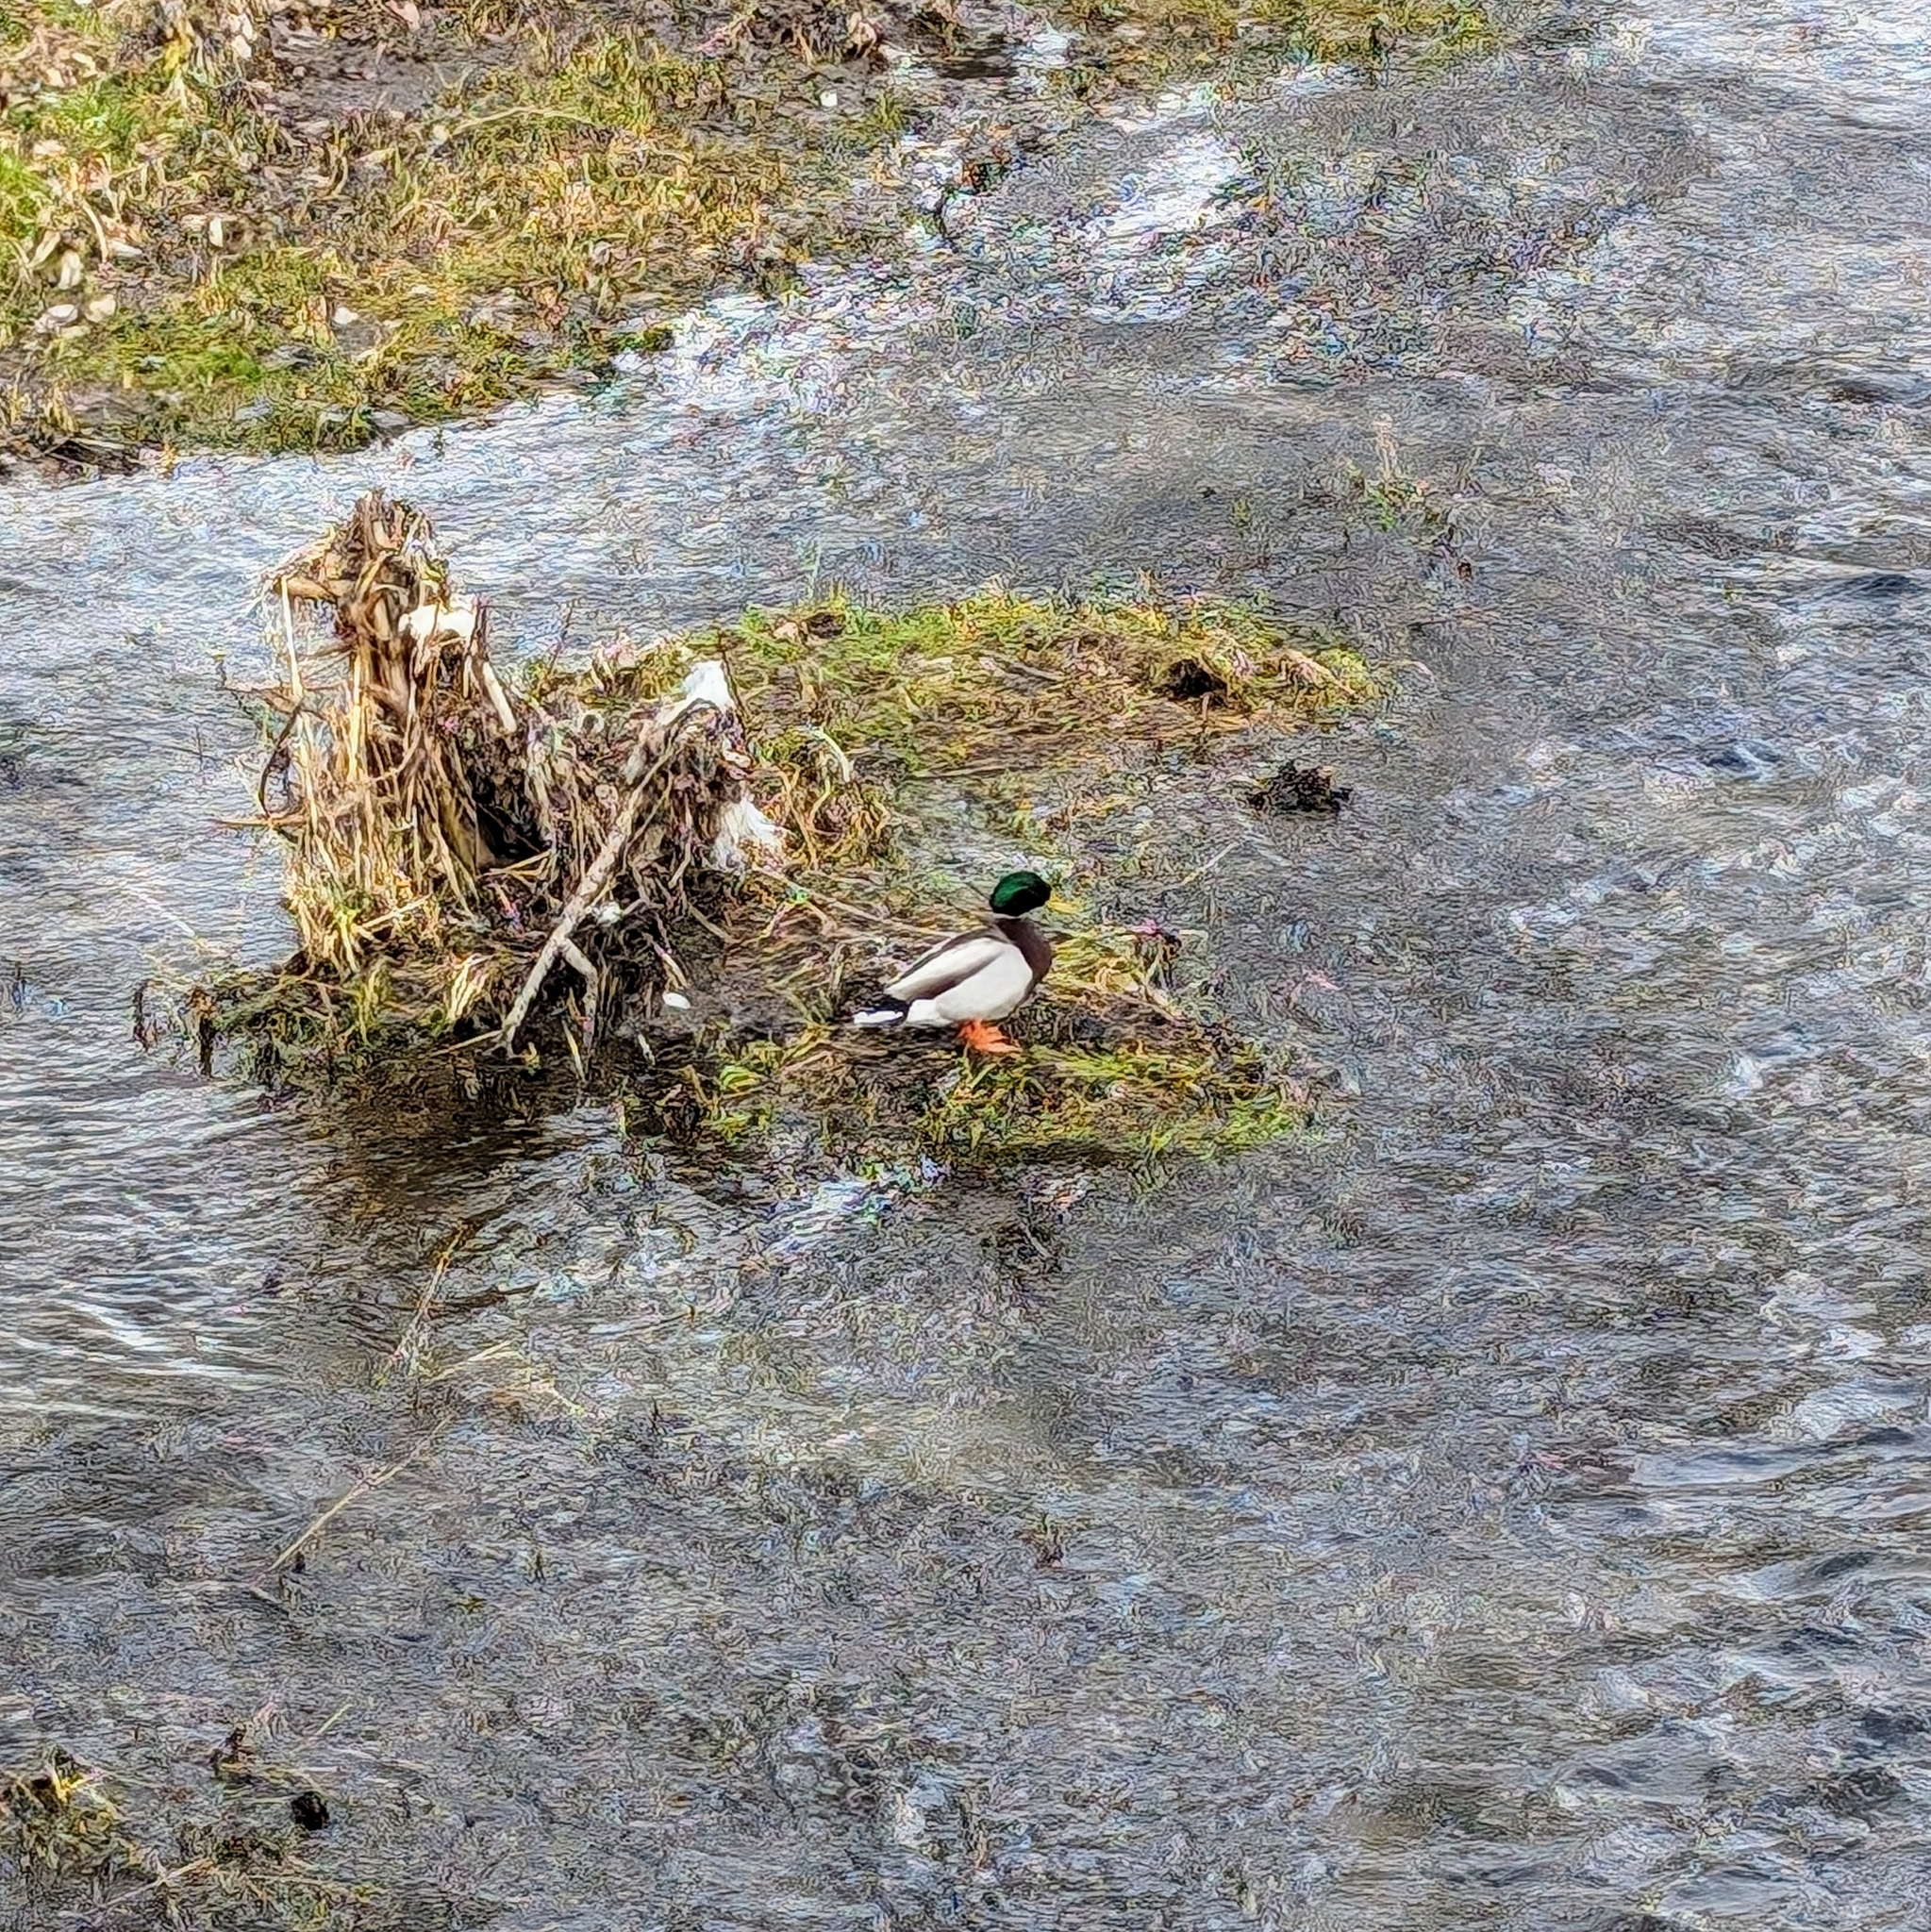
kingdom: Animalia
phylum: Chordata
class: Aves
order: Anseriformes
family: Anatidae
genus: Anas
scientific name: Anas platyrhynchos
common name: Mallard
